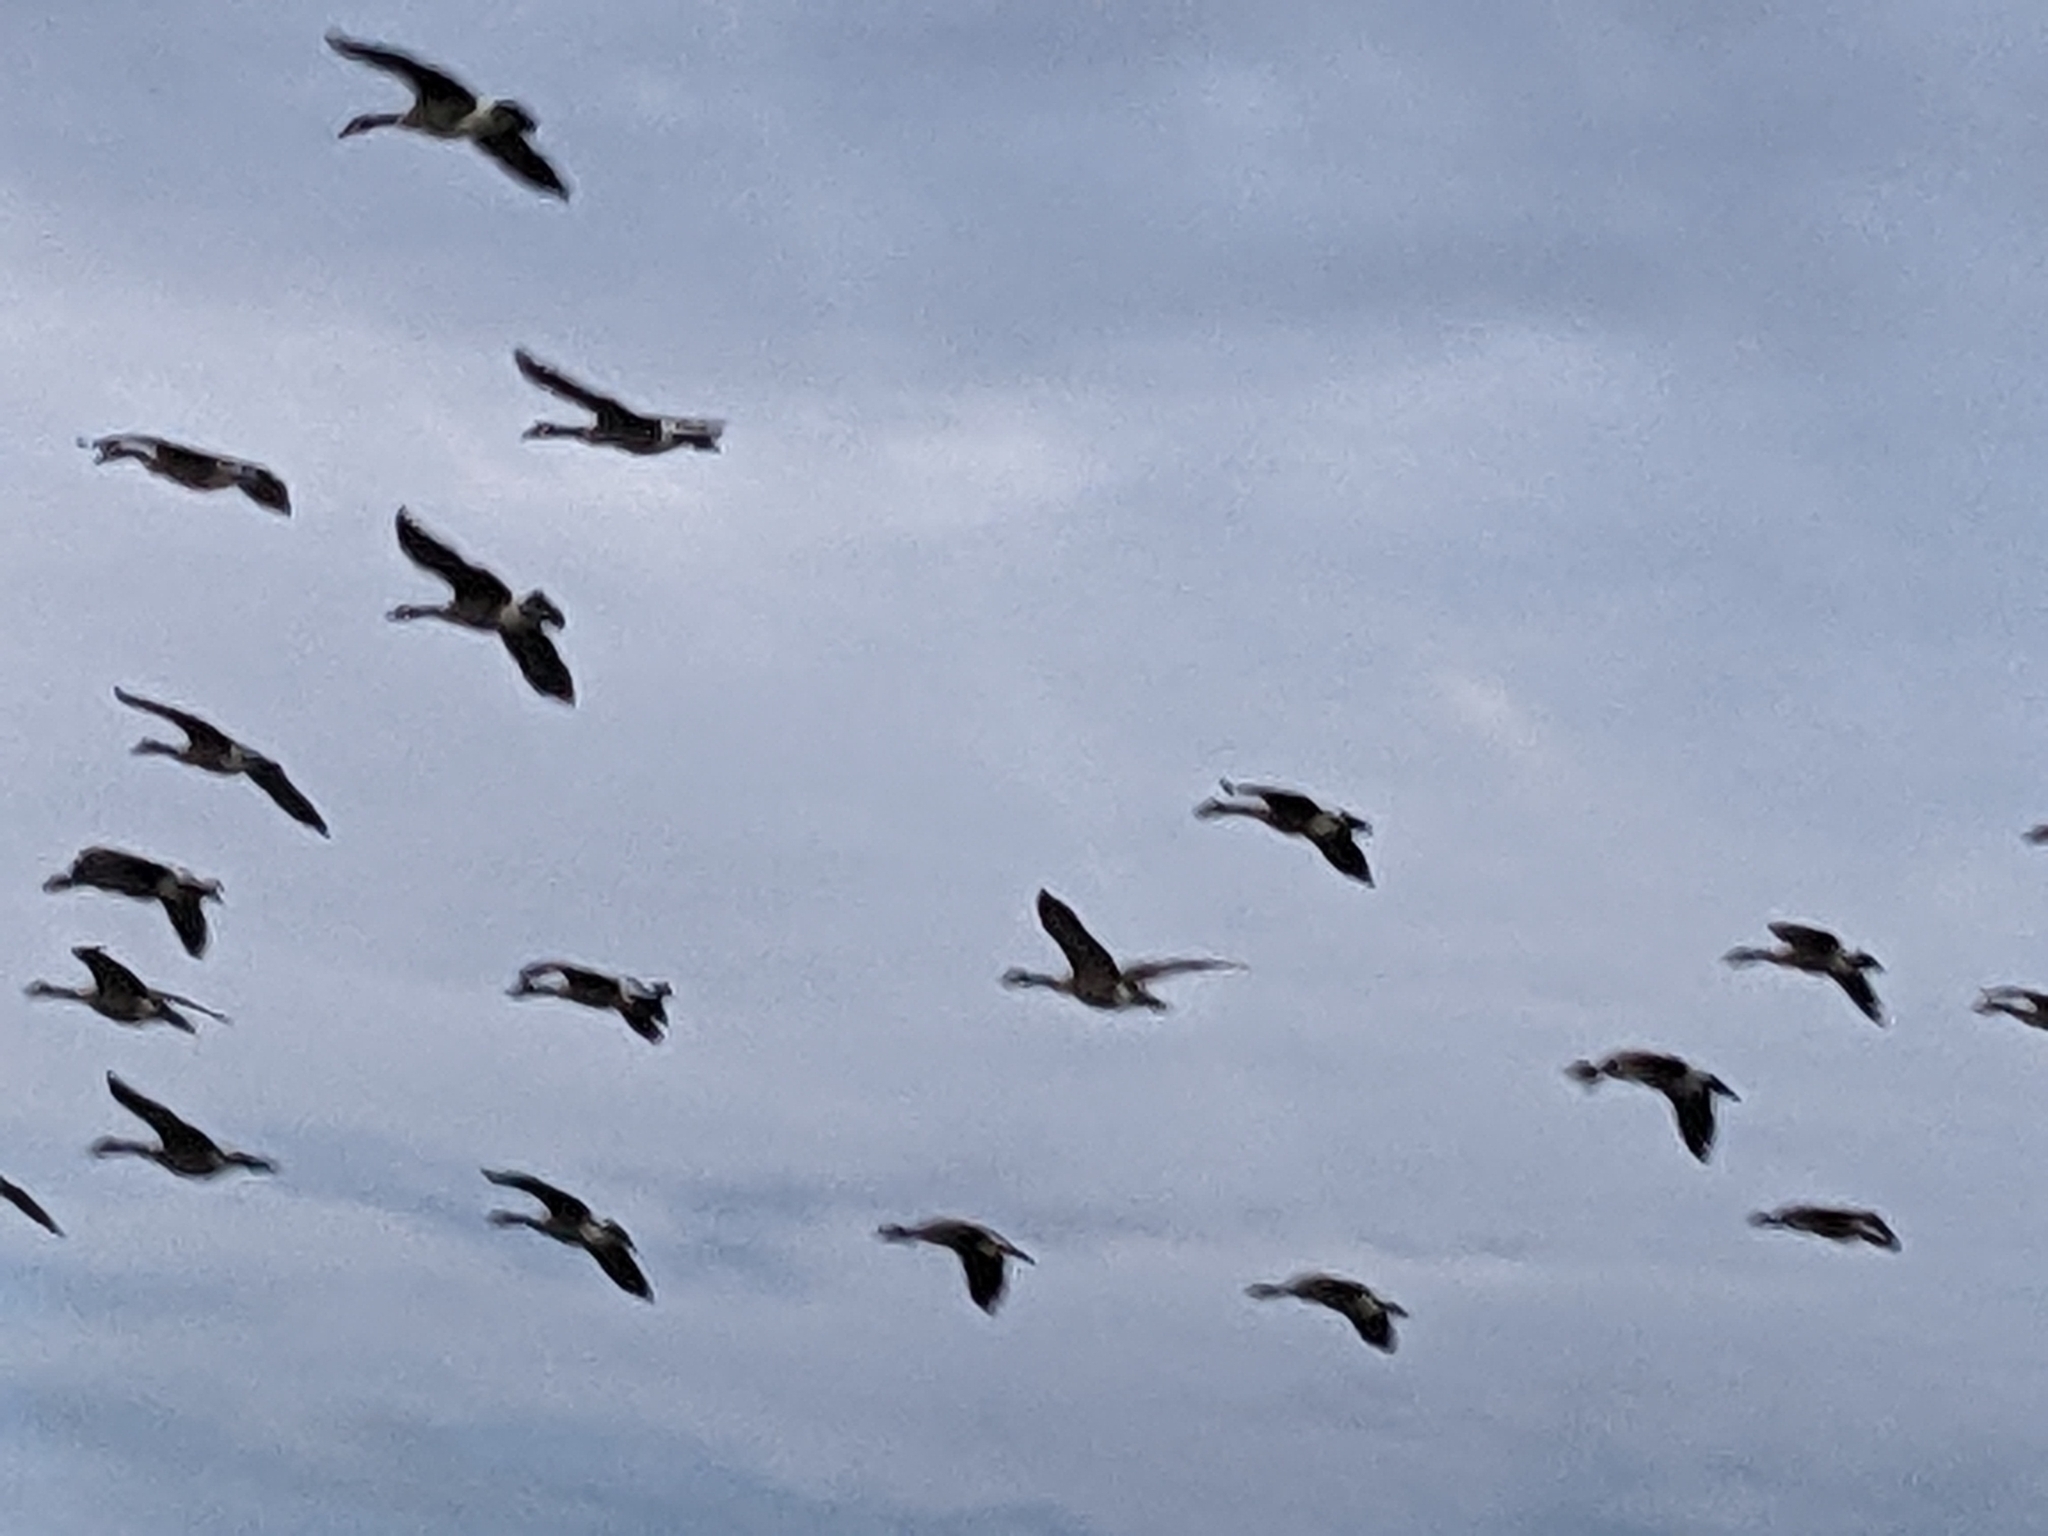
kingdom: Animalia
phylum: Chordata
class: Aves
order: Anseriformes
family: Anatidae
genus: Branta
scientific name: Branta canadensis
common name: Canada goose
